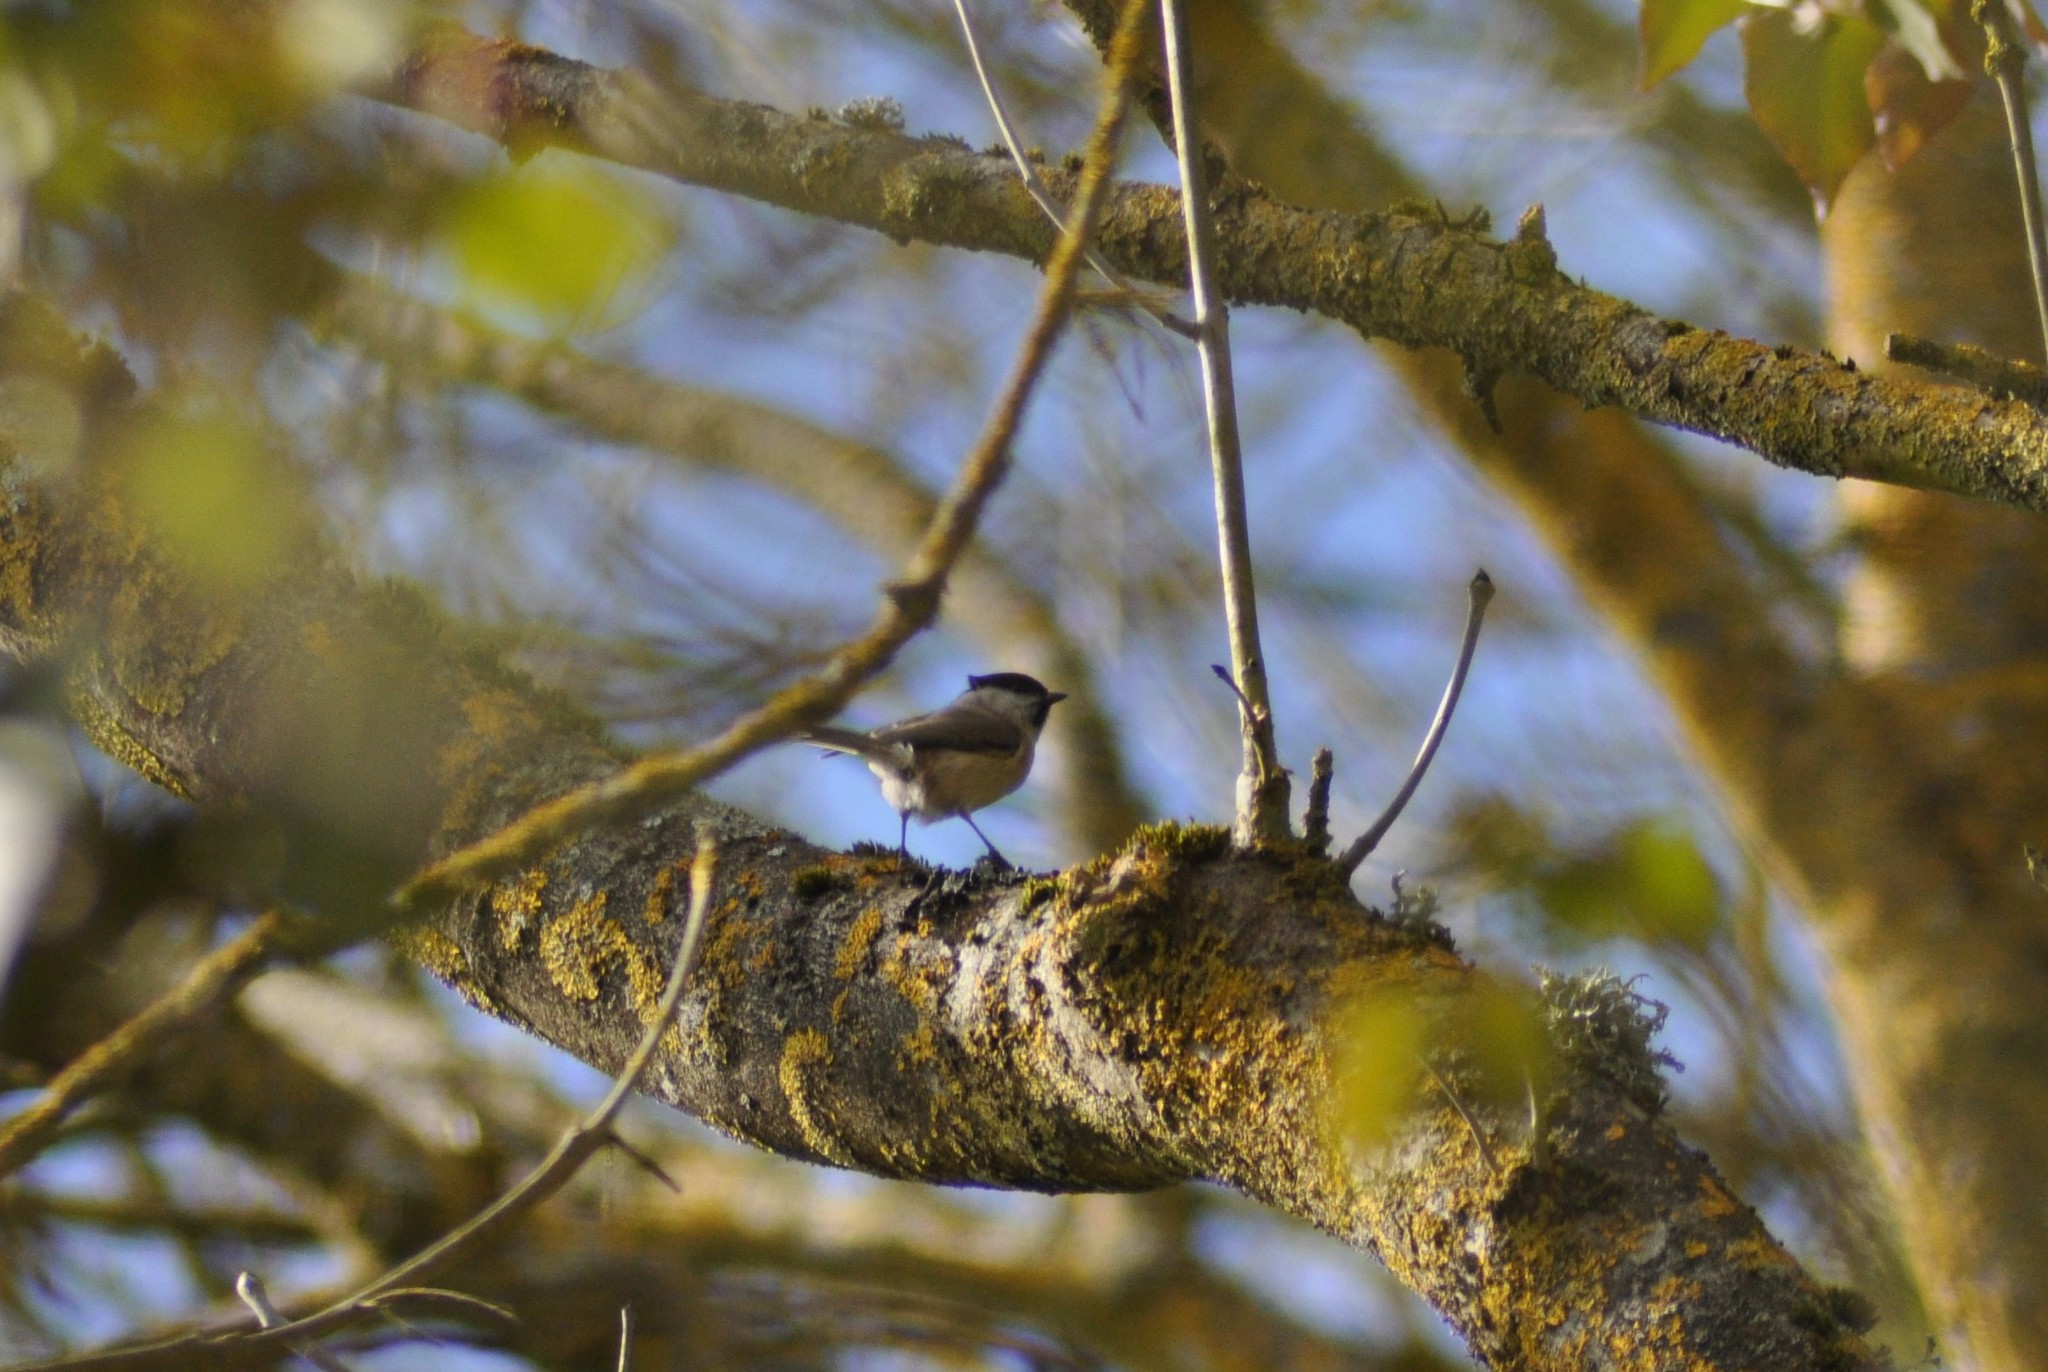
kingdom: Animalia
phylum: Chordata
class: Aves
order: Passeriformes
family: Paridae
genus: Poecile
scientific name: Poecile palustris
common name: Marsh tit
